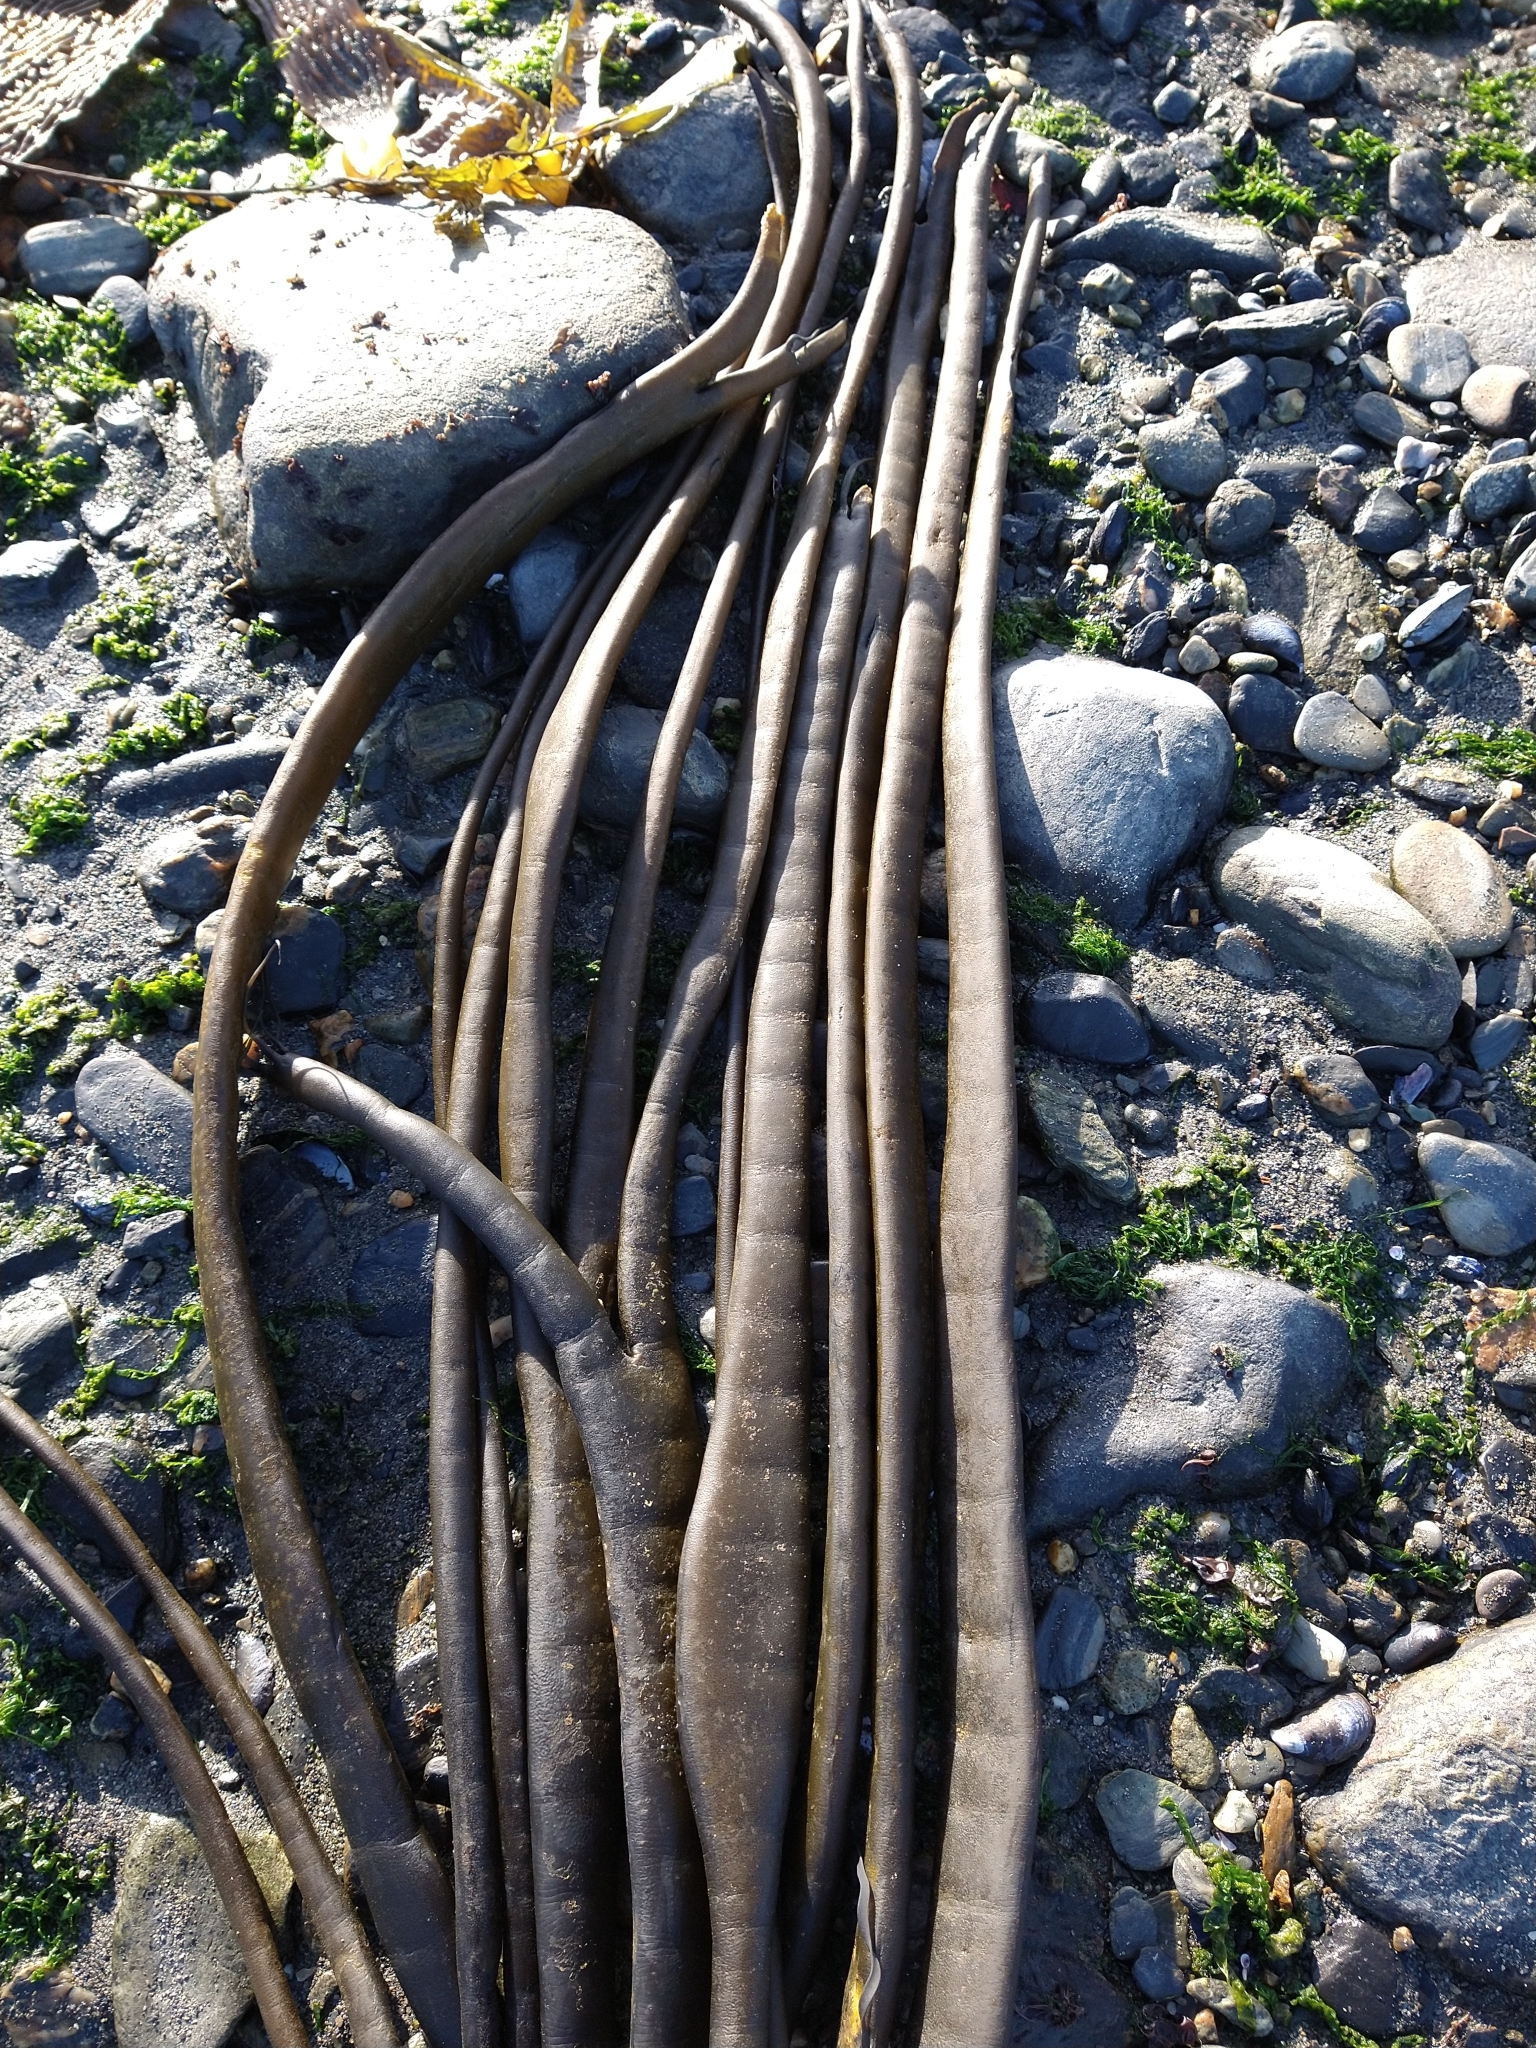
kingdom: Chromista
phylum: Ochrophyta
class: Phaeophyceae
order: Fucales
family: Durvillaeaceae
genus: Durvillaea
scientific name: Durvillaea antarctica
